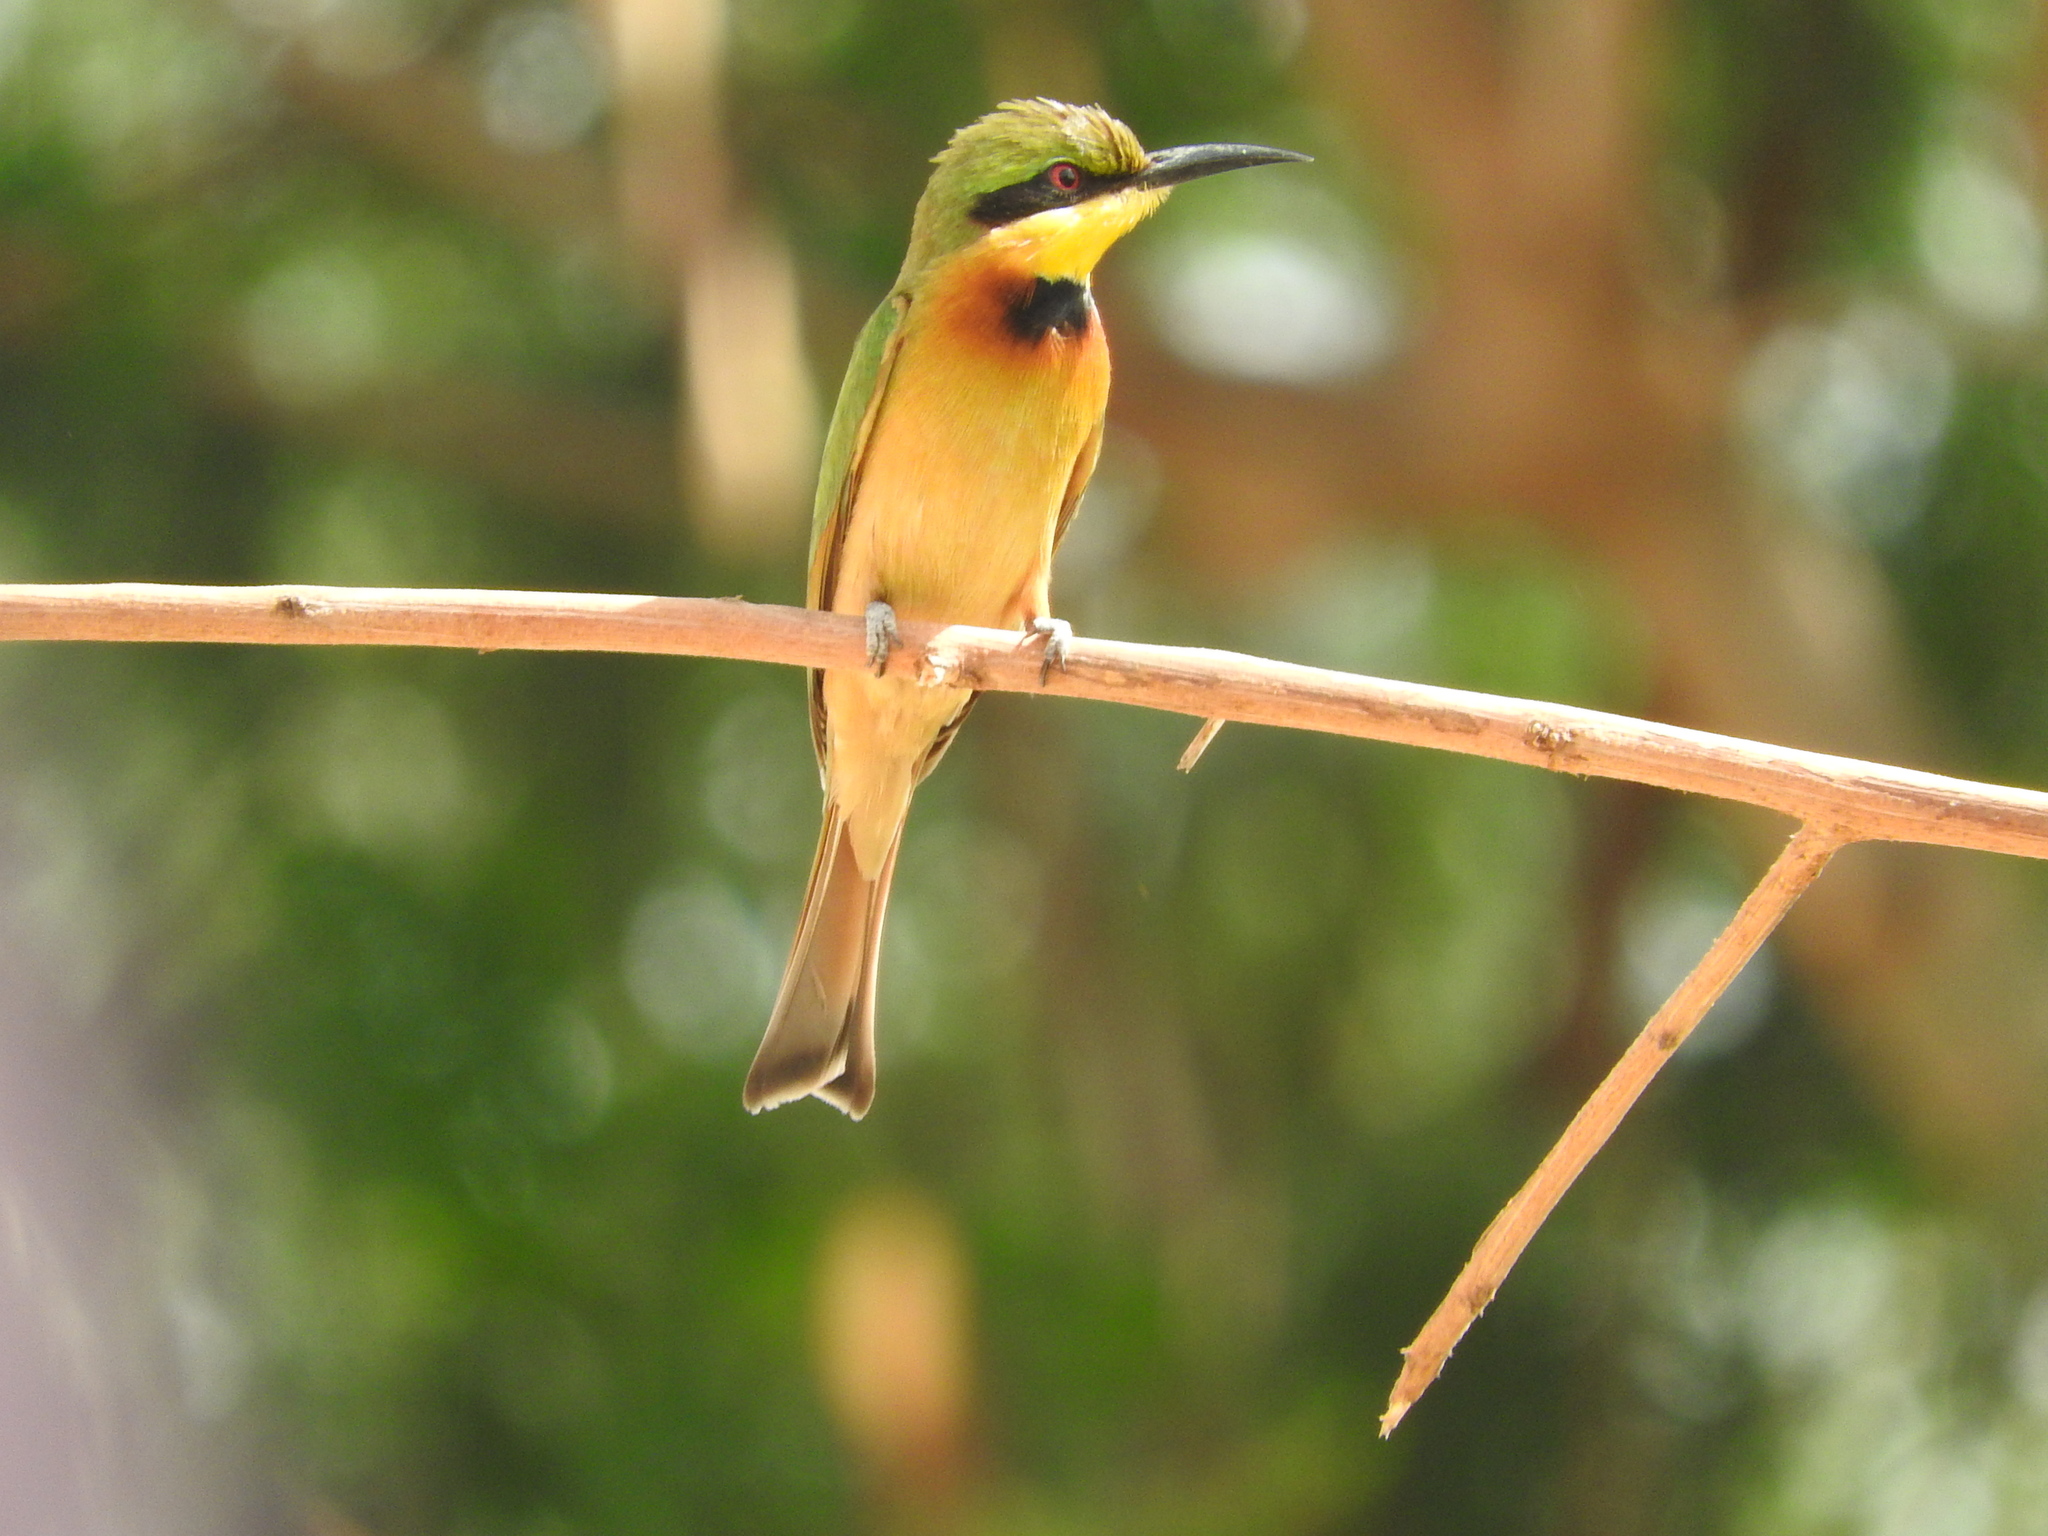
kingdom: Animalia
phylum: Chordata
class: Aves
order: Coraciiformes
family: Meropidae
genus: Merops
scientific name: Merops pusillus
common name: Little bee-eater
